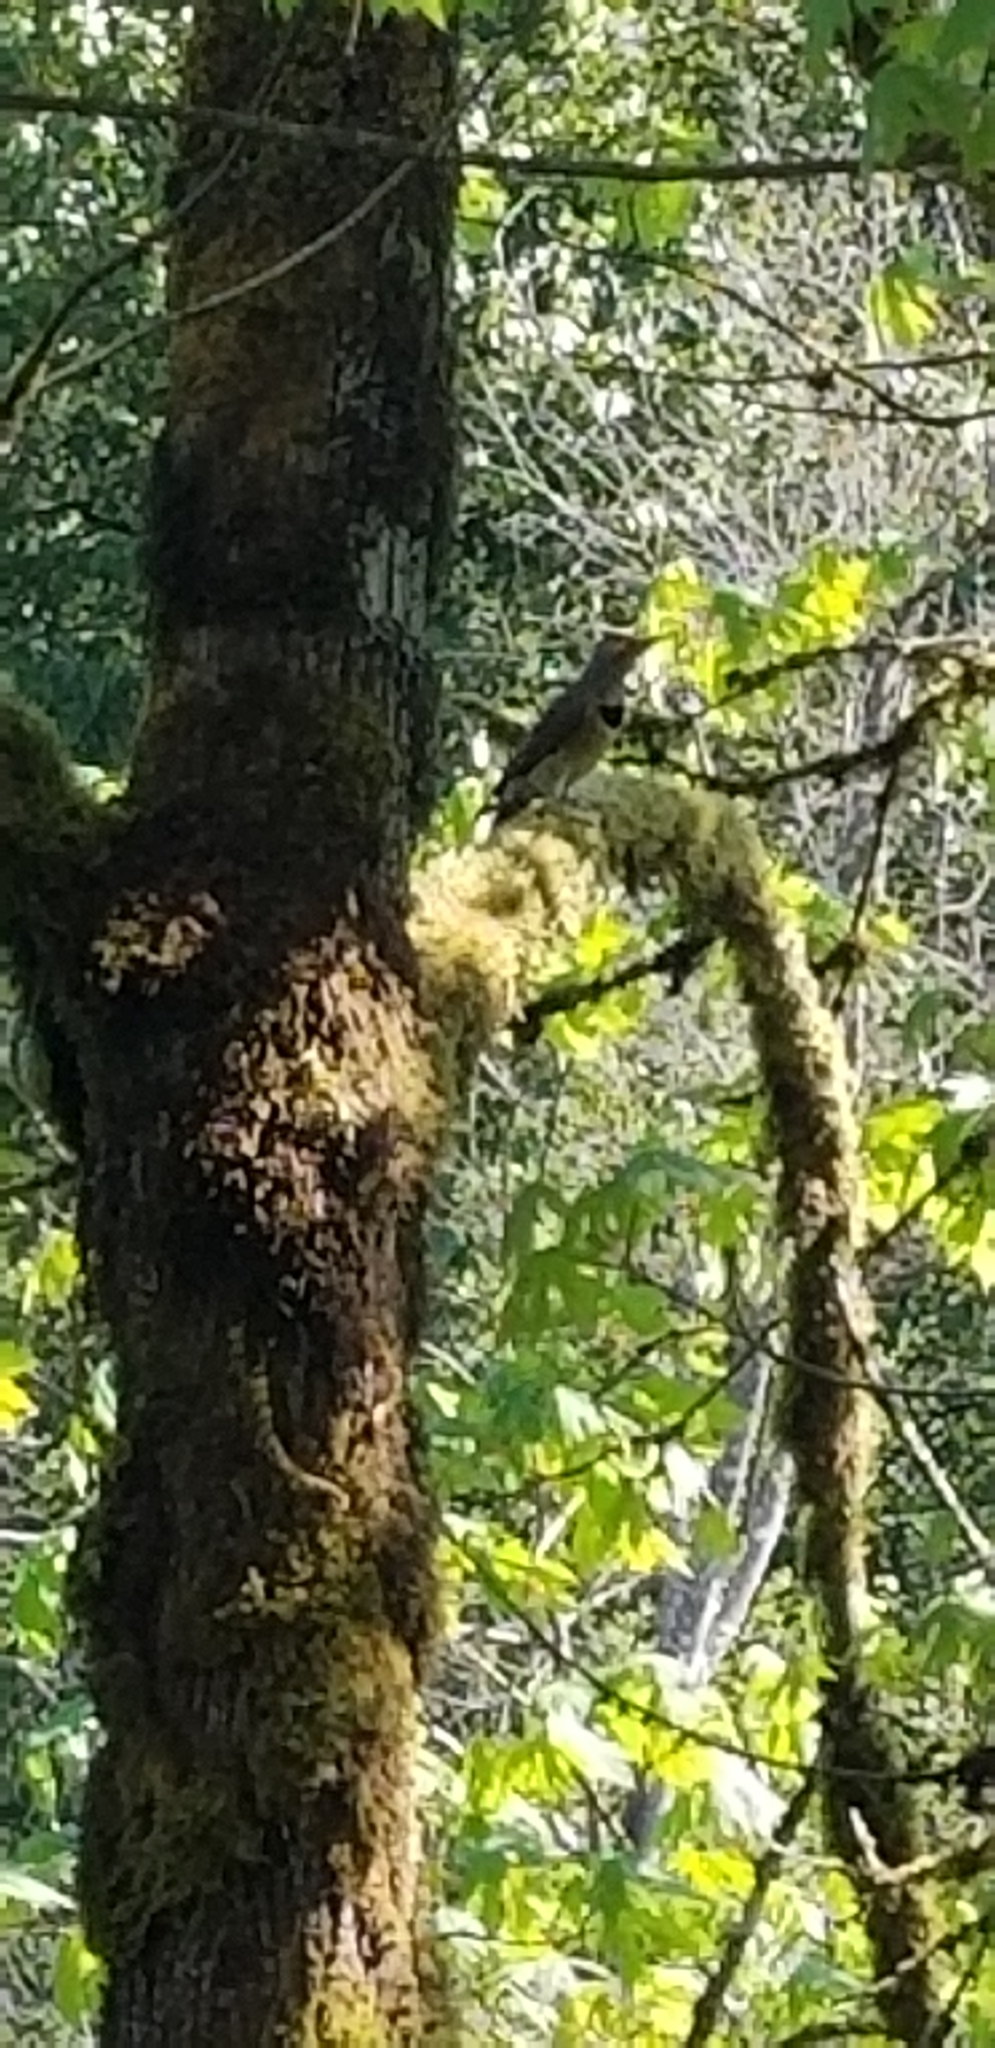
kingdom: Animalia
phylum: Chordata
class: Aves
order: Piciformes
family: Picidae
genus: Colaptes
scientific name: Colaptes auratus
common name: Northern flicker
